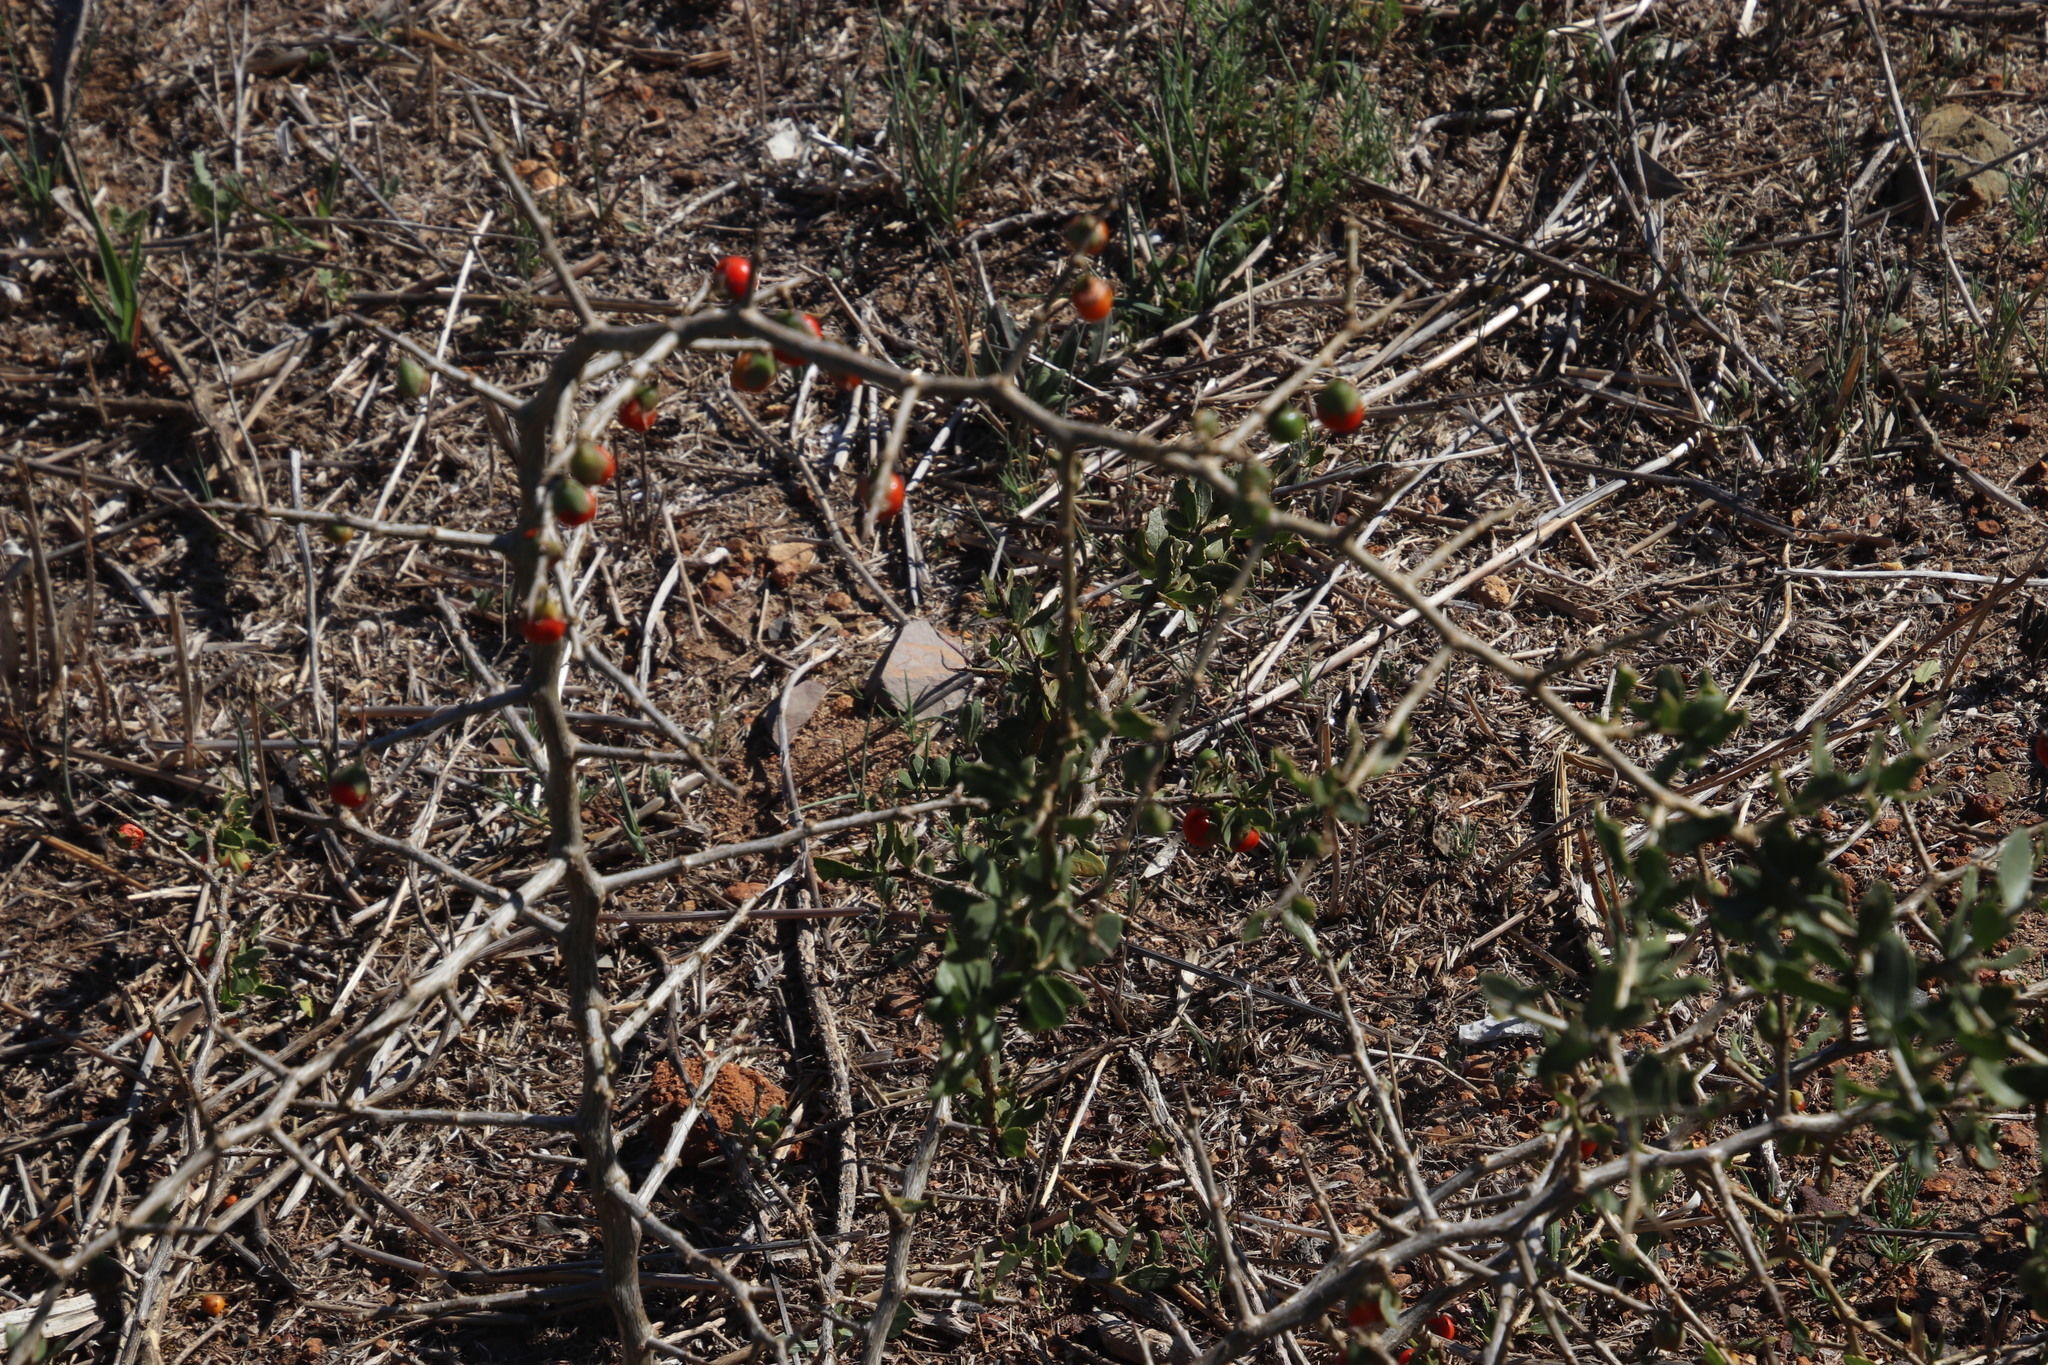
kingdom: Plantae
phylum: Tracheophyta
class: Magnoliopsida
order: Solanales
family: Solanaceae
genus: Lycium
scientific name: Lycium ferocissimum
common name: African boxthorn
